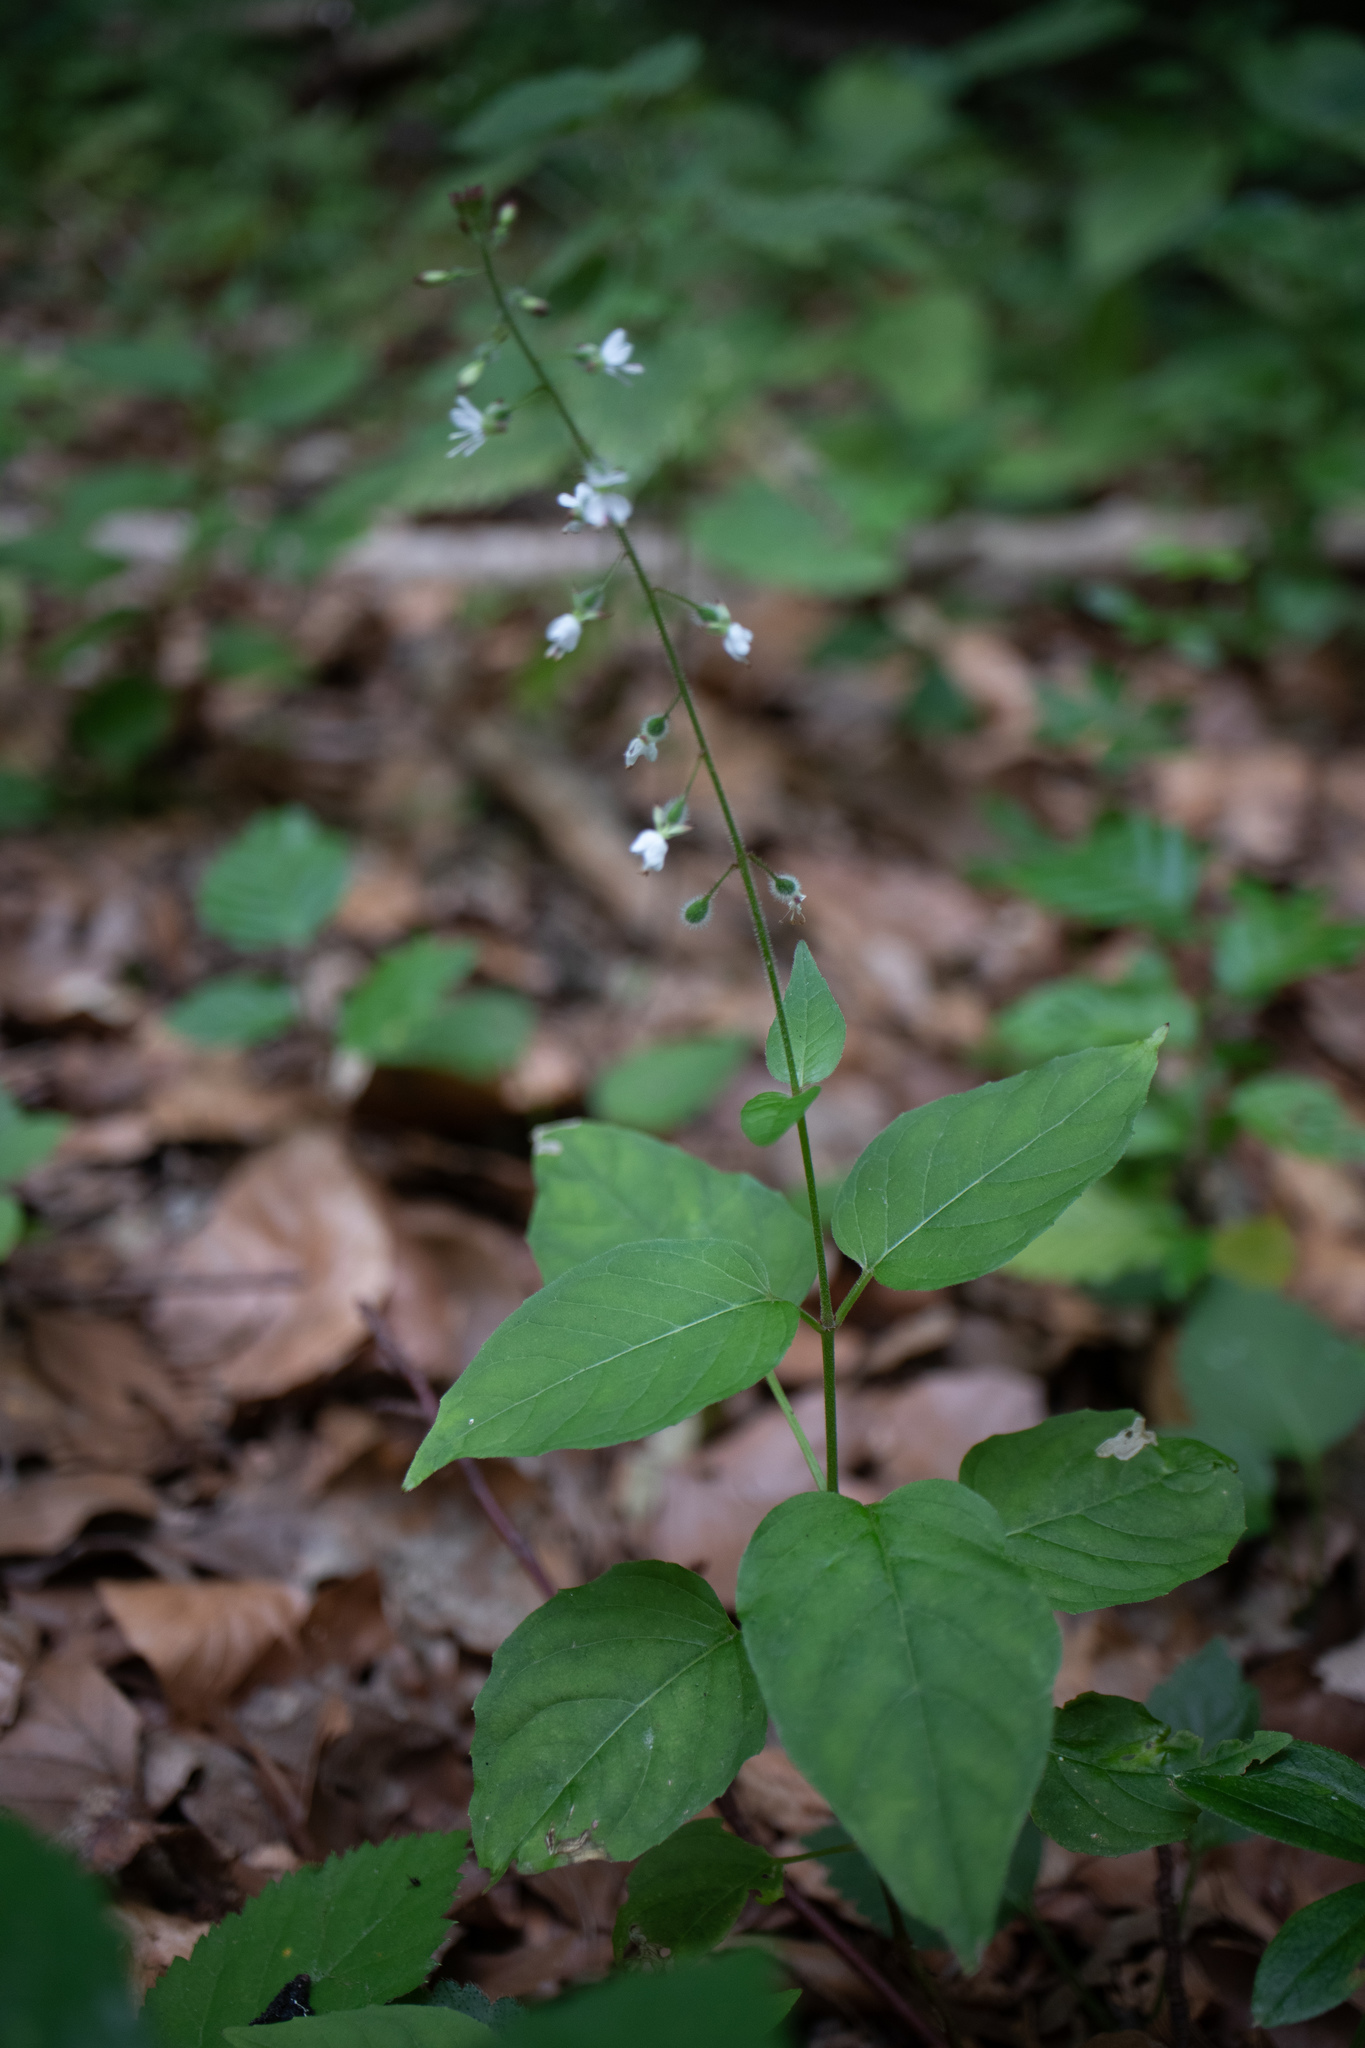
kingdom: Plantae
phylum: Tracheophyta
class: Magnoliopsida
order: Myrtales
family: Onagraceae
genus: Circaea
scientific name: Circaea lutetiana
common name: Enchanter's-nightshade
